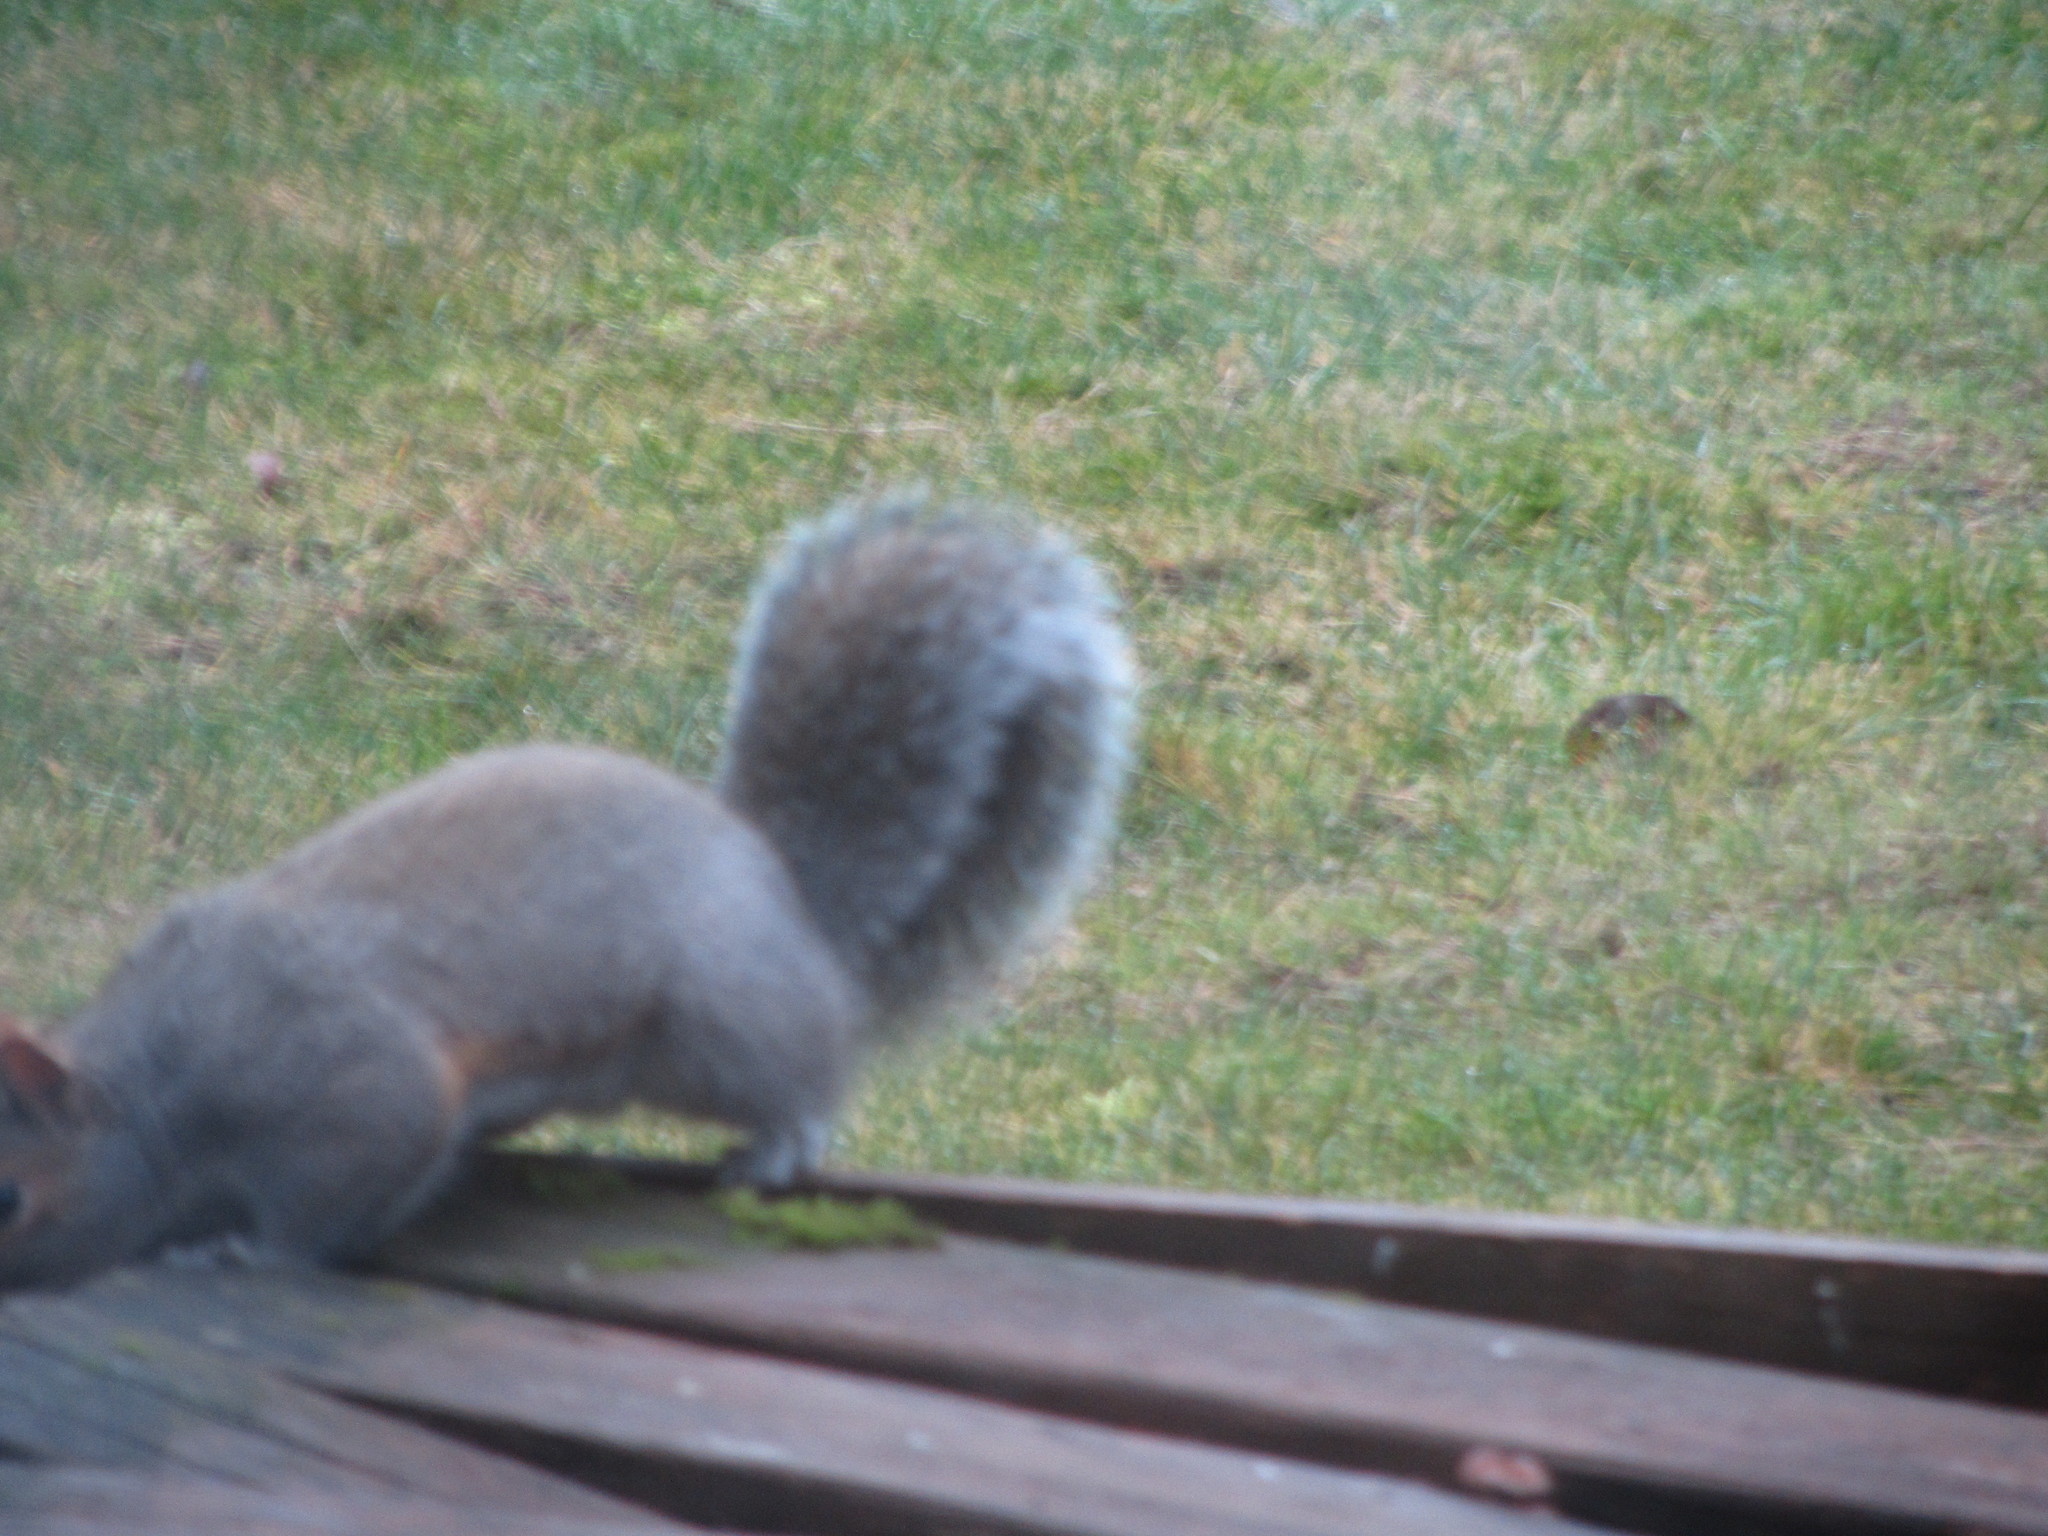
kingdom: Animalia
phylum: Chordata
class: Mammalia
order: Rodentia
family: Sciuridae
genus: Sciurus
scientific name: Sciurus carolinensis
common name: Eastern gray squirrel
